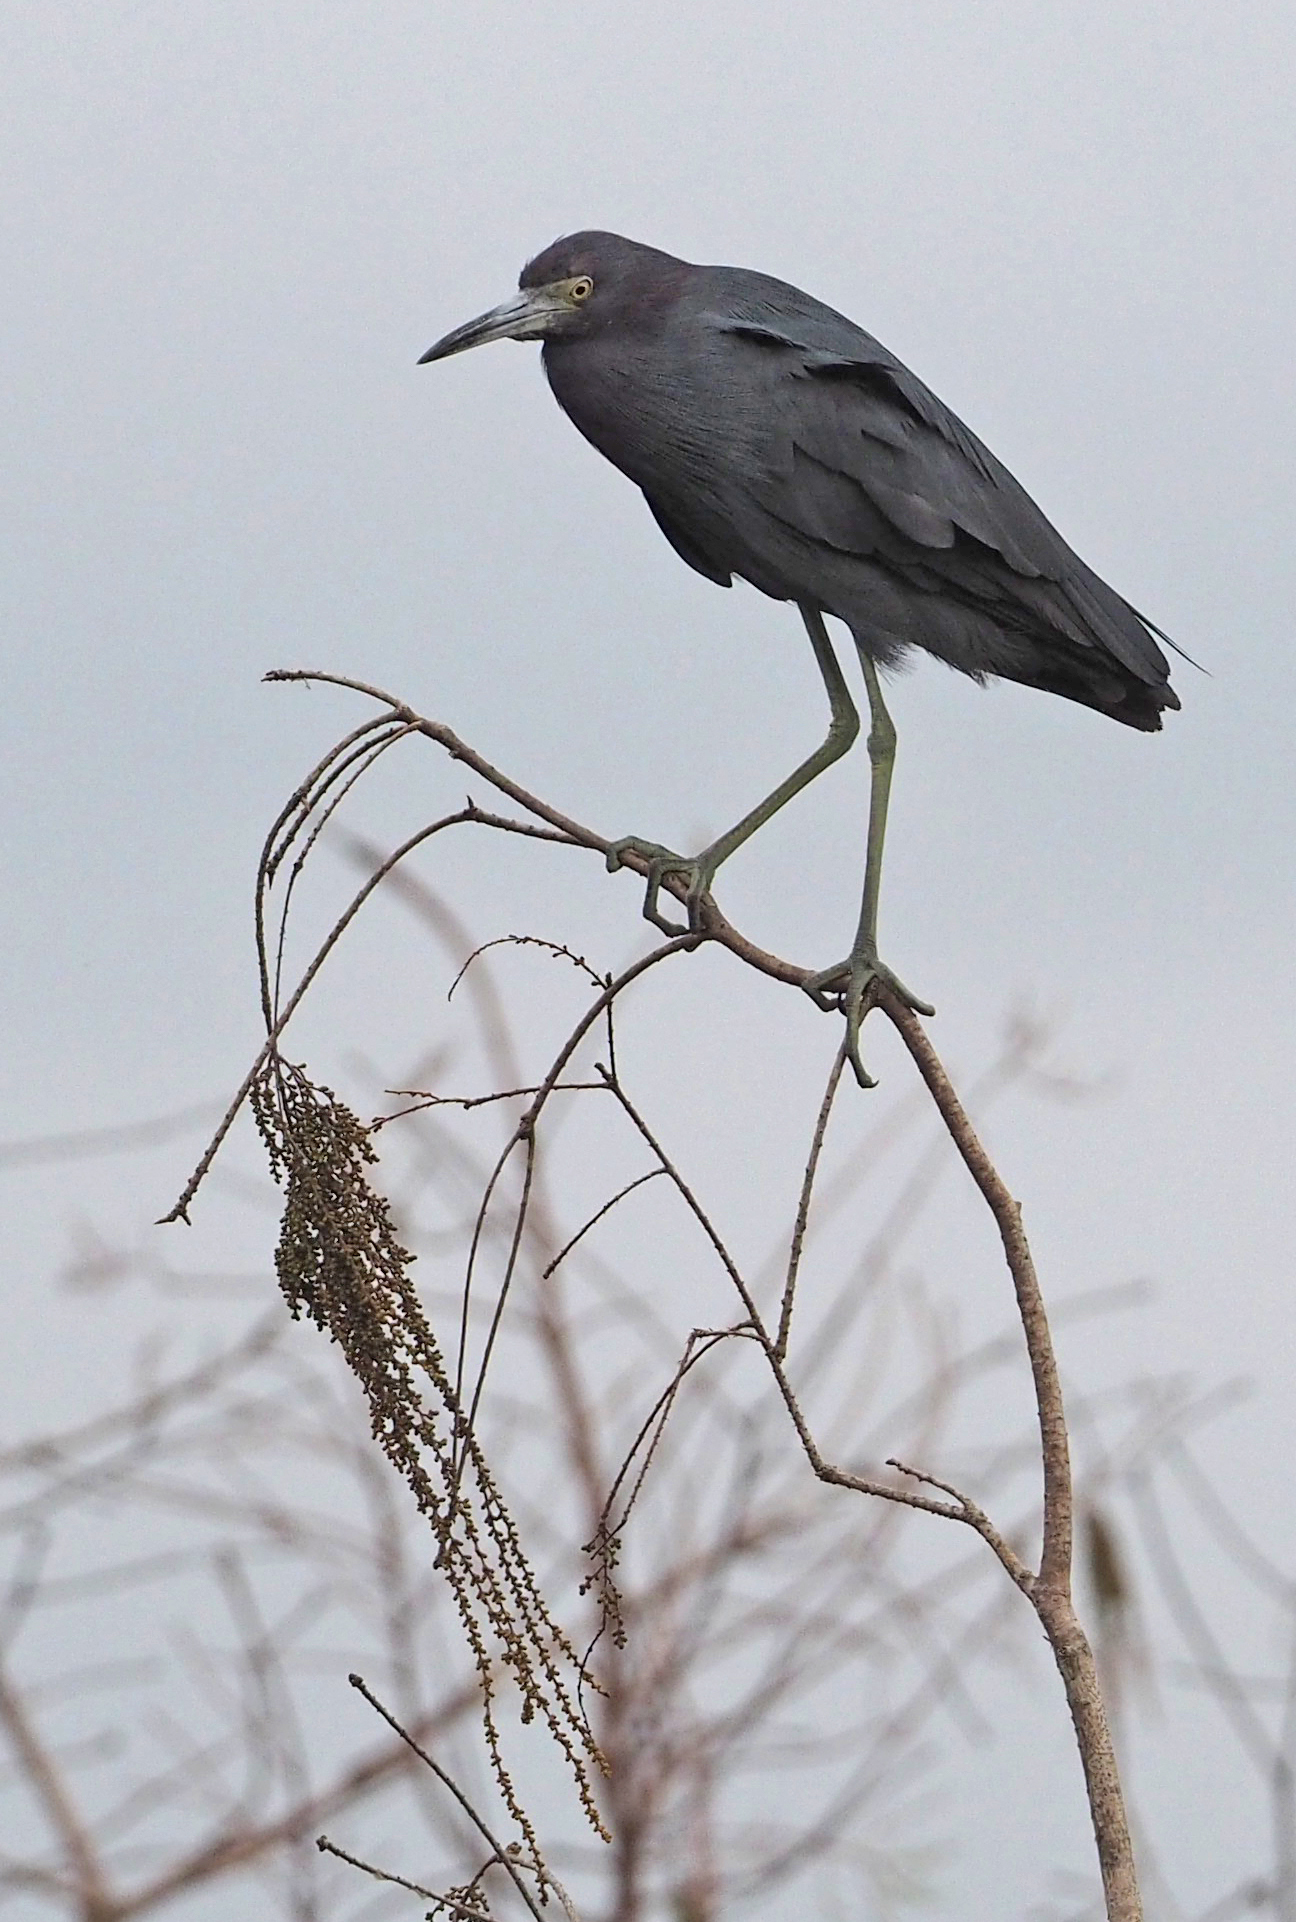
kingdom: Animalia
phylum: Chordata
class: Aves
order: Pelecaniformes
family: Ardeidae
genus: Egretta
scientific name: Egretta caerulea
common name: Little blue heron
